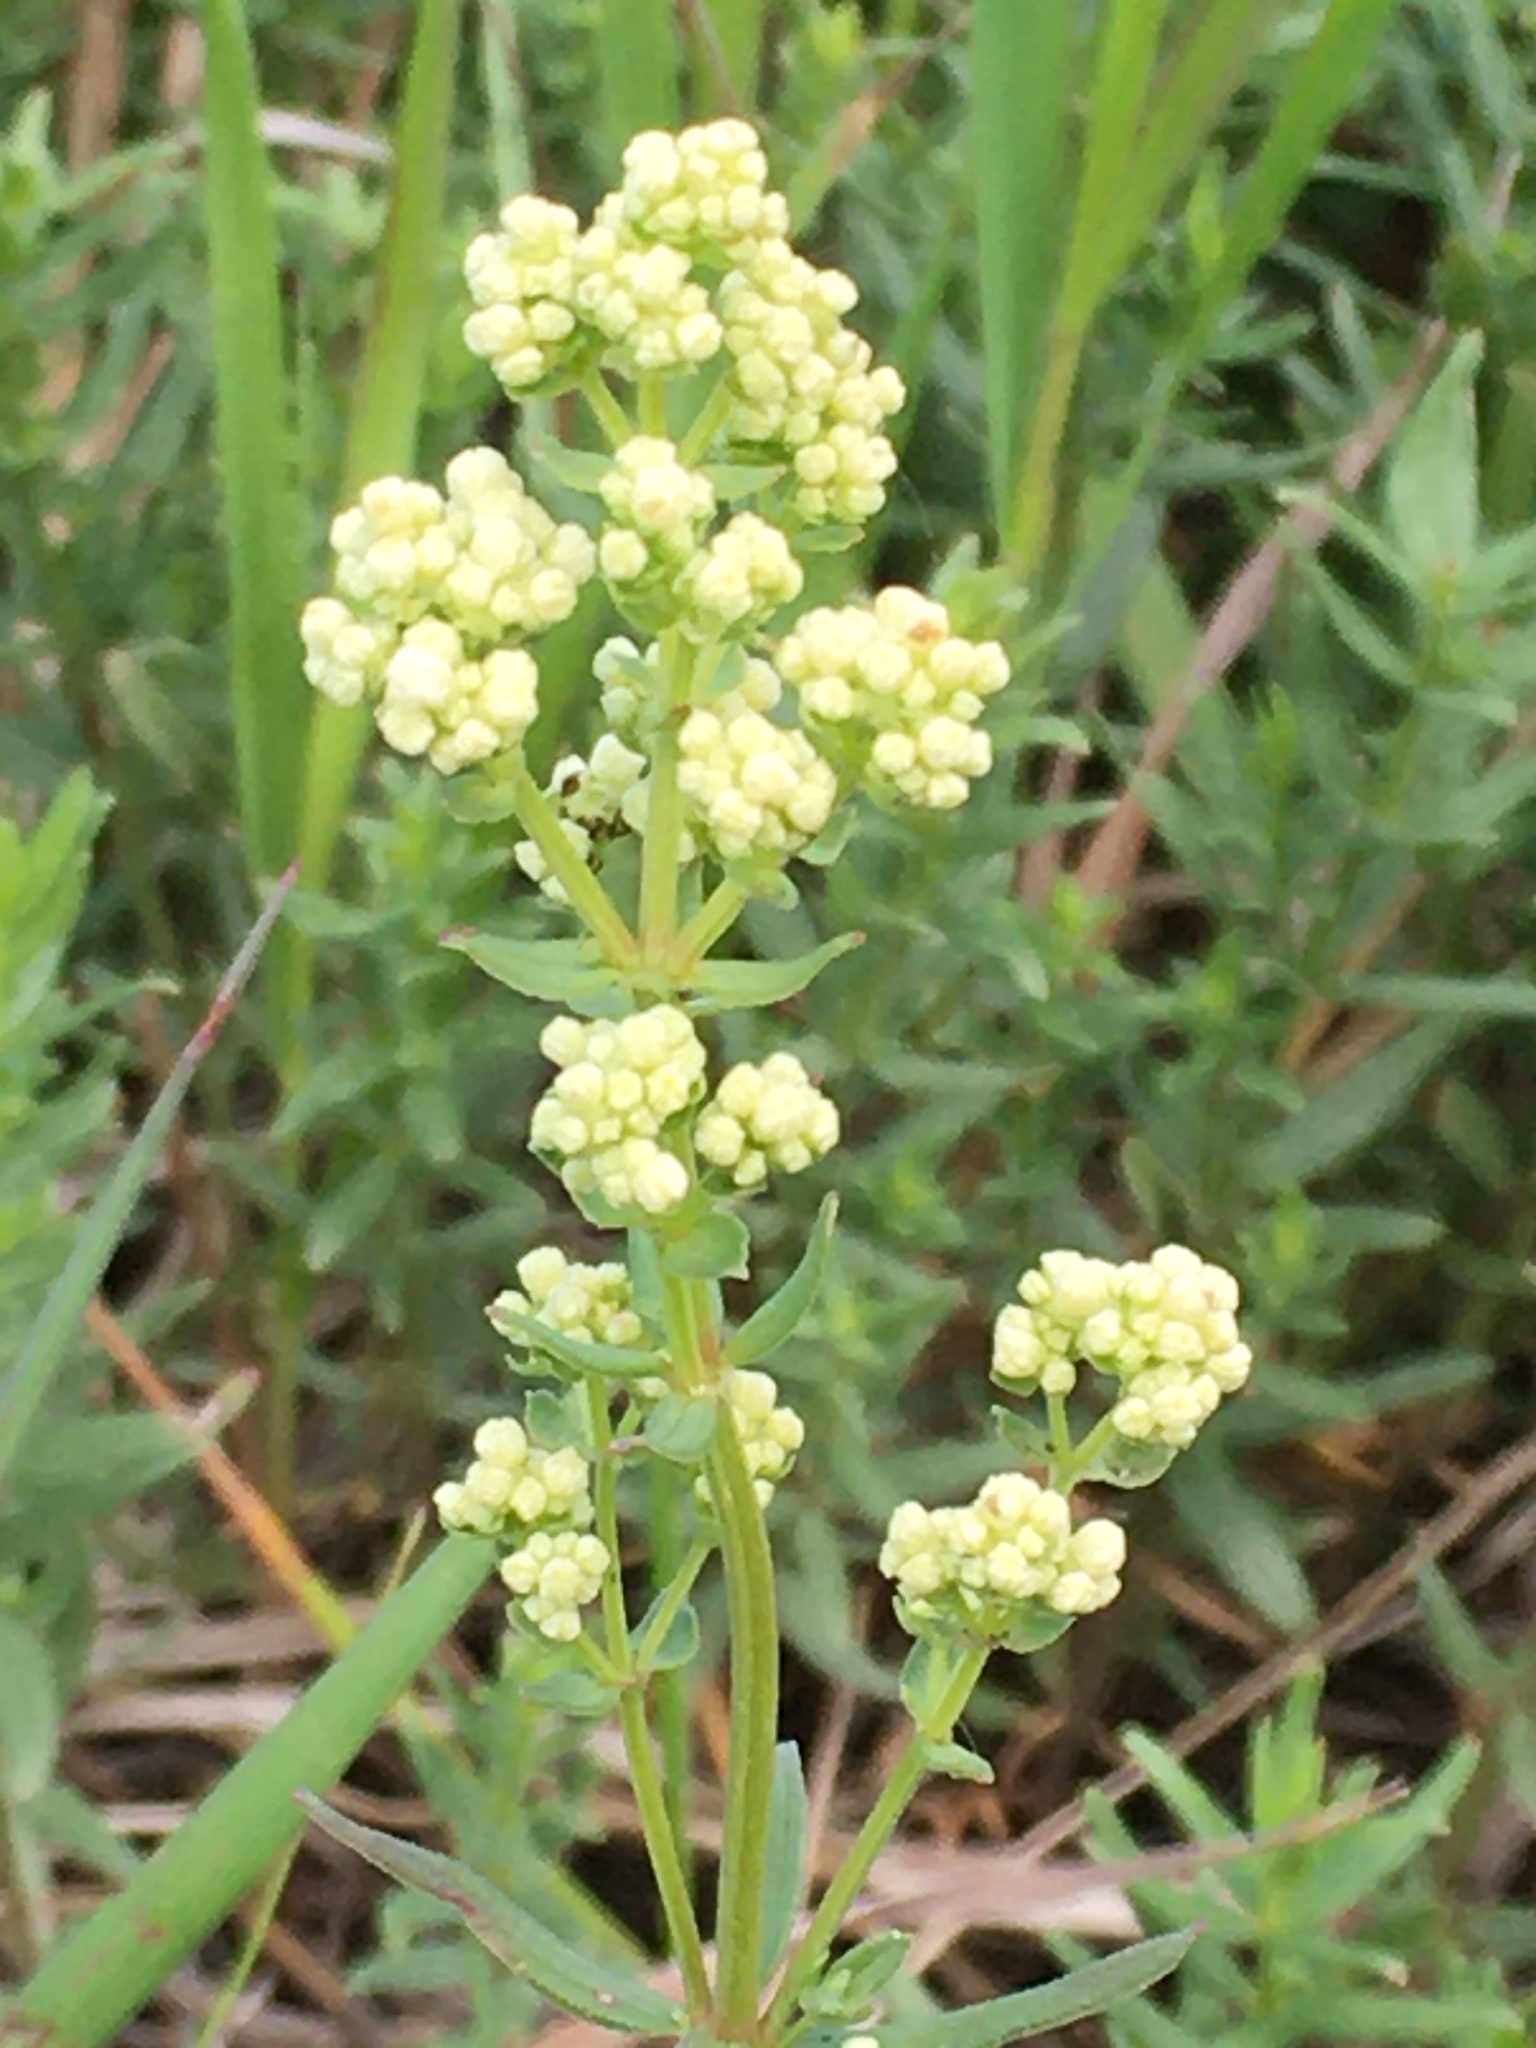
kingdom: Plantae
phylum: Tracheophyta
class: Magnoliopsida
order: Gentianales
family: Rubiaceae
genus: Galium
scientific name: Galium boreale
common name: Northern bedstraw
